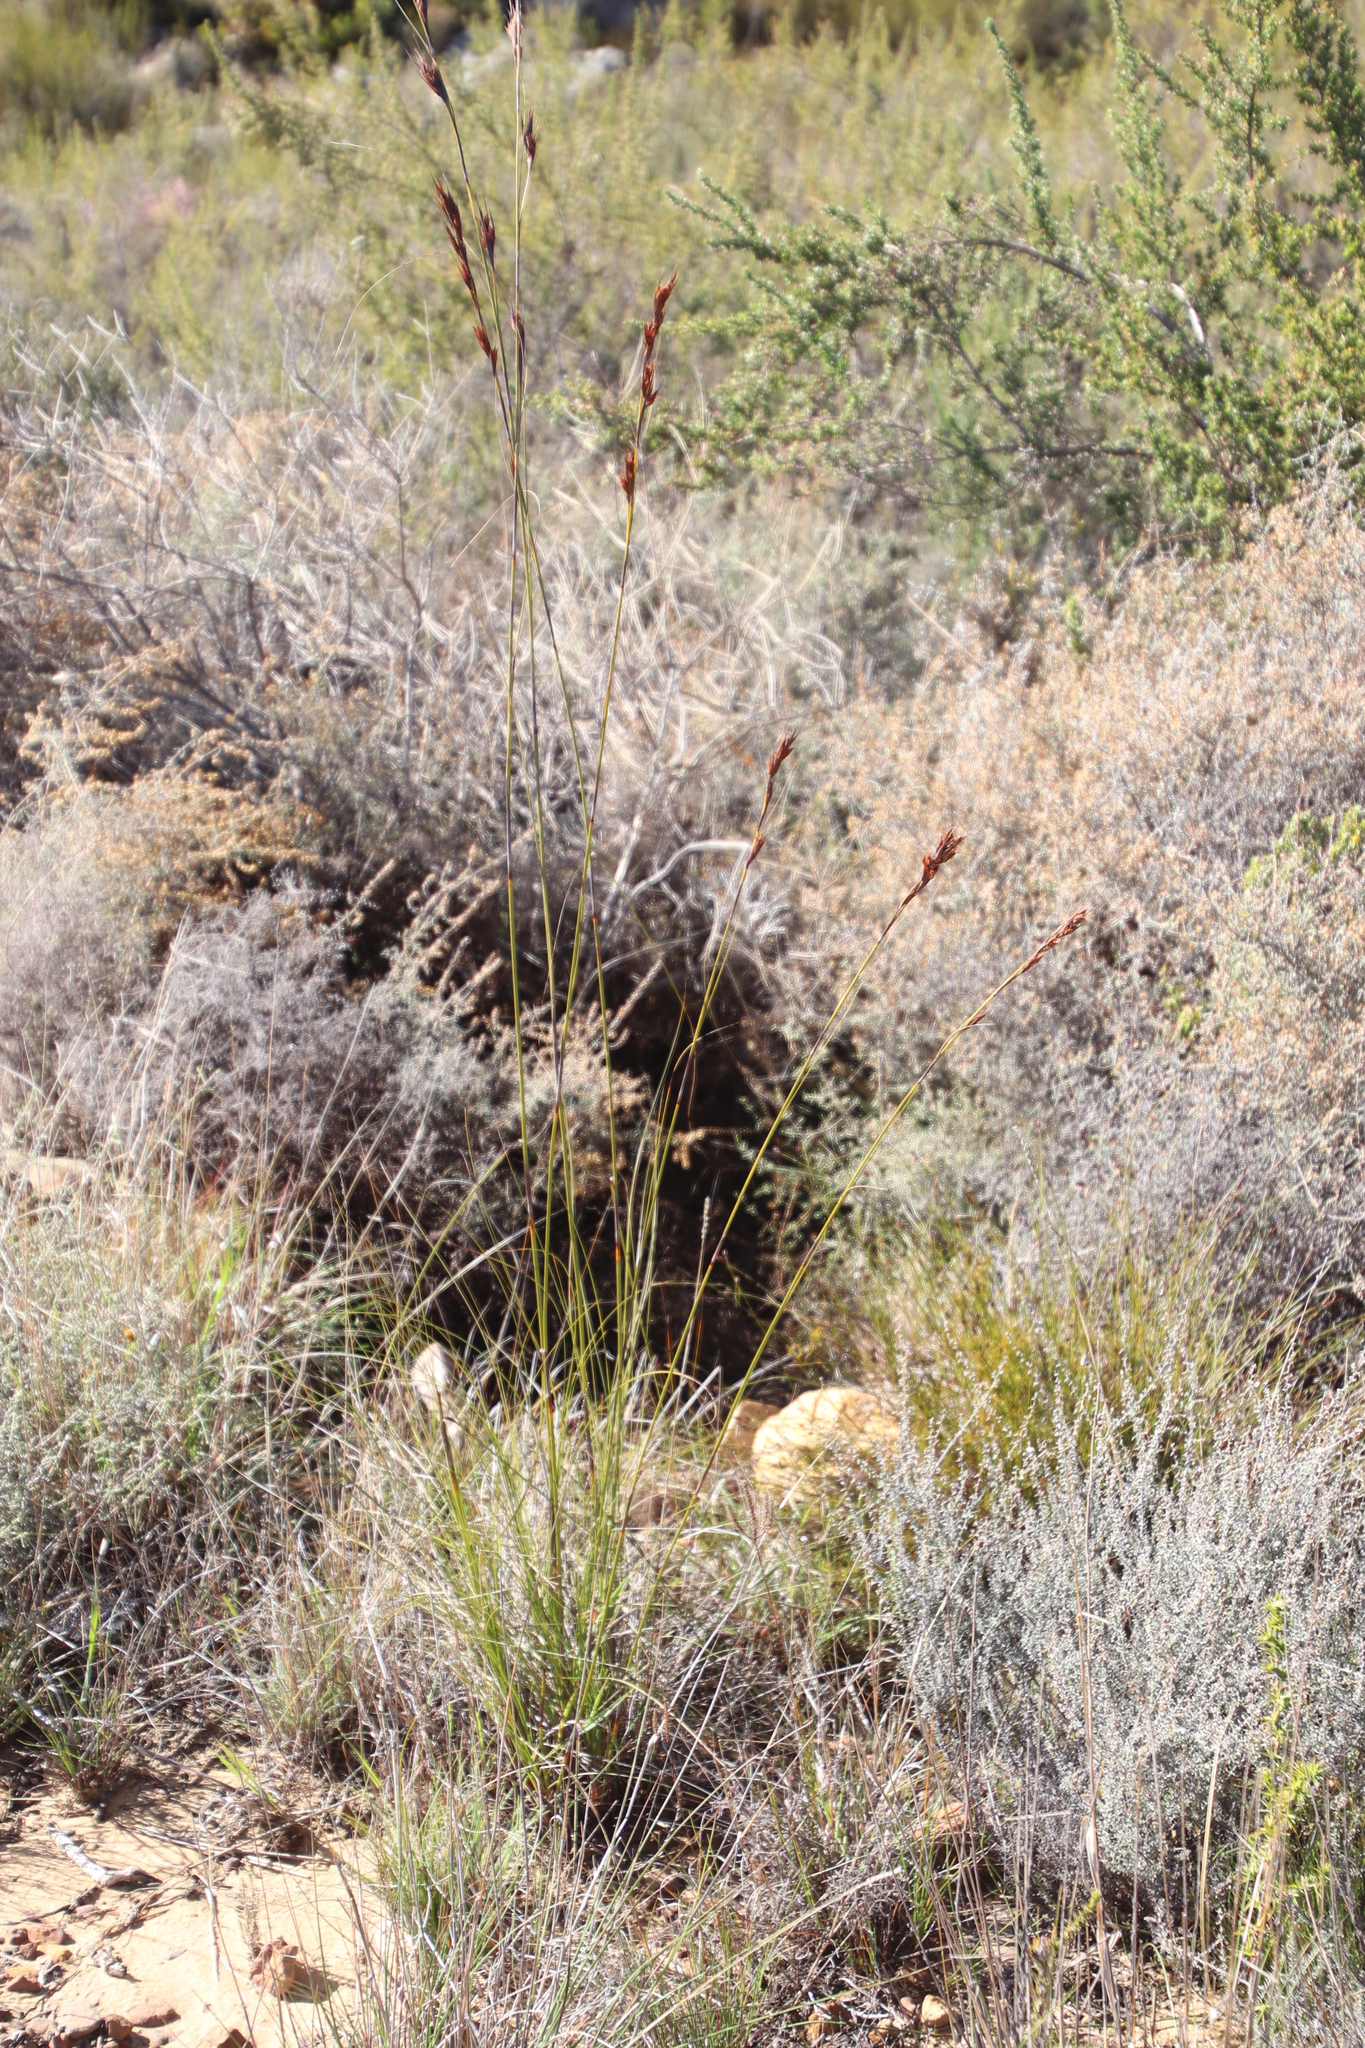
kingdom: Plantae
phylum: Tracheophyta
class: Liliopsida
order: Poales
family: Cyperaceae
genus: Tetraria
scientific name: Tetraria ustulata
